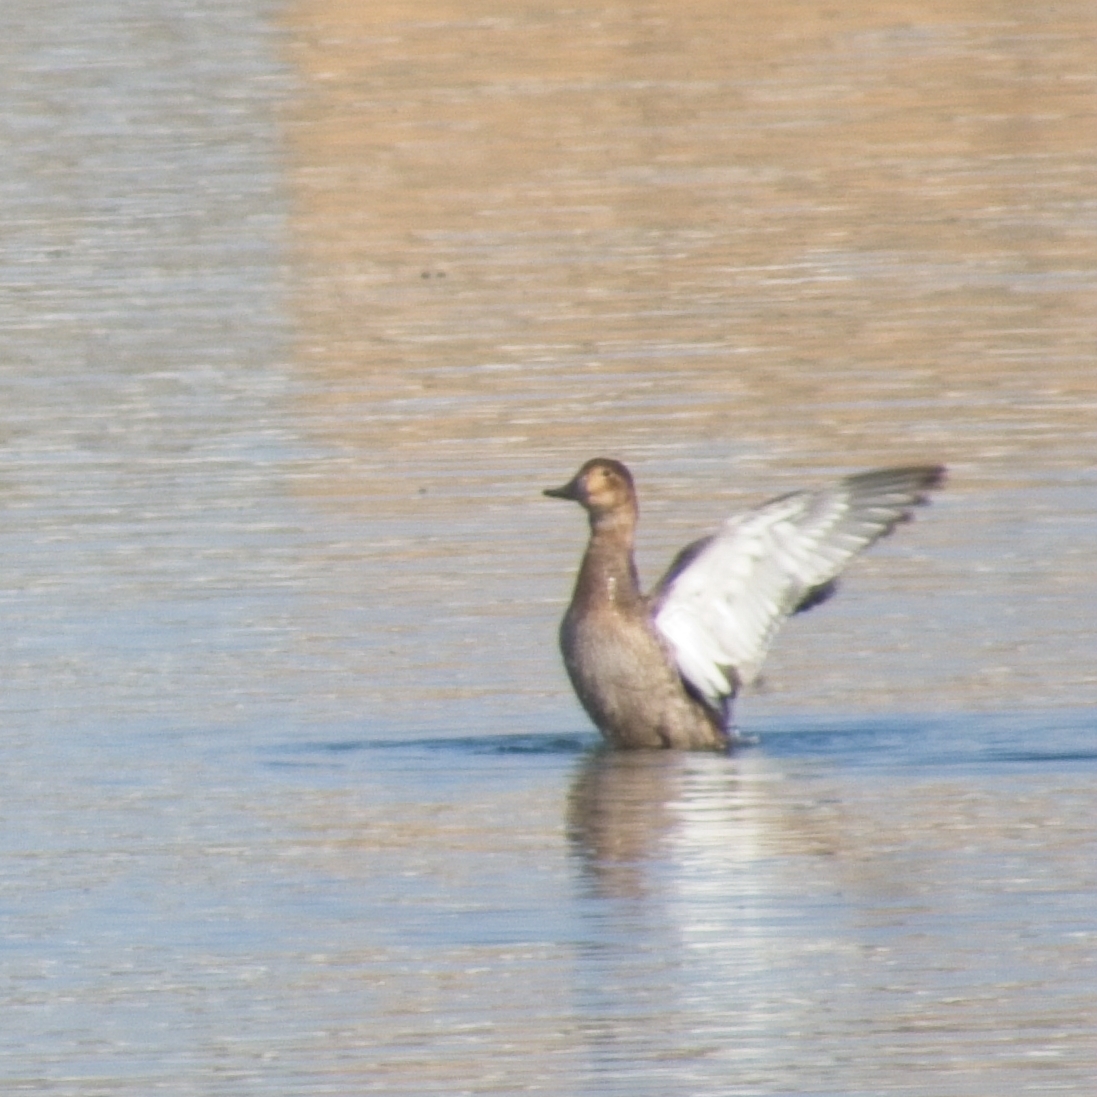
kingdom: Animalia
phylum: Chordata
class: Aves
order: Anseriformes
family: Anatidae
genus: Aythya
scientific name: Aythya ferina
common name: Common pochard
